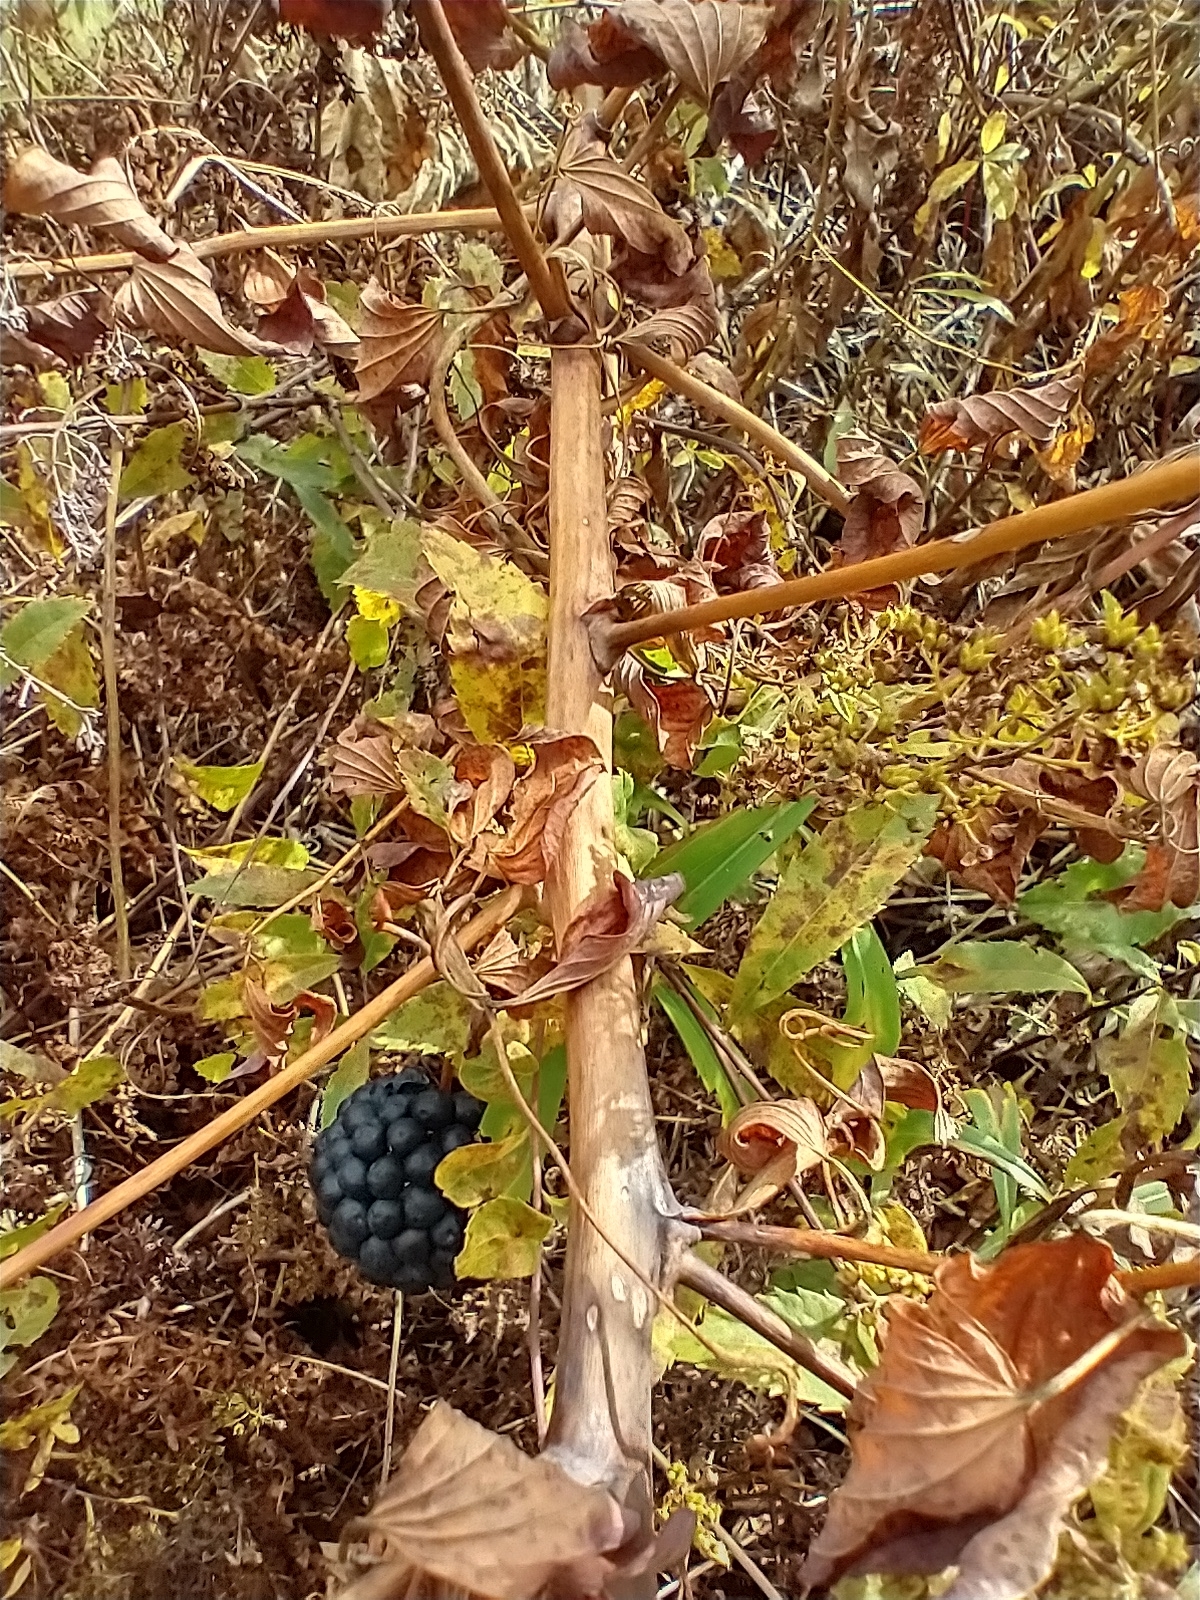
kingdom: Plantae
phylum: Tracheophyta
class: Liliopsida
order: Liliales
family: Smilacaceae
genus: Smilax
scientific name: Smilax herbacea
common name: Jacob's-ladder
